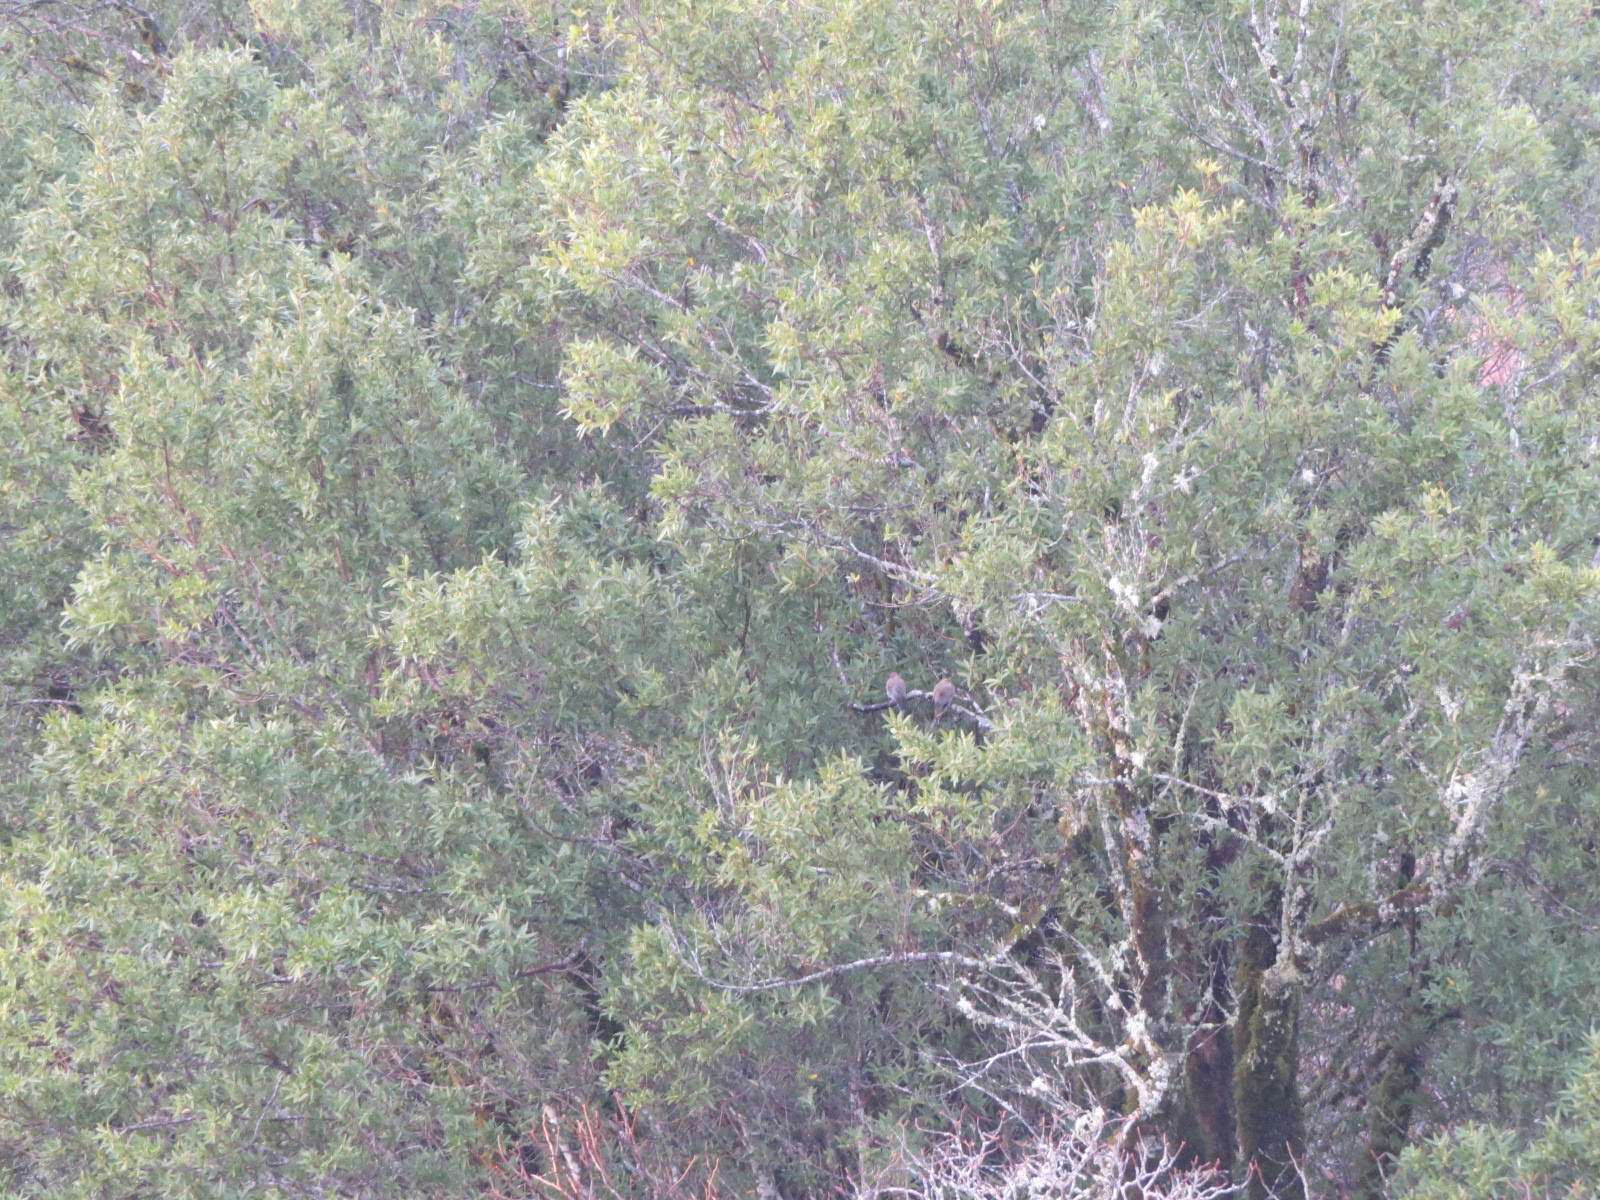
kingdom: Animalia
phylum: Chordata
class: Aves
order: Columbiformes
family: Columbidae
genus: Zenaida
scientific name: Zenaida macroura
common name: Mourning dove
